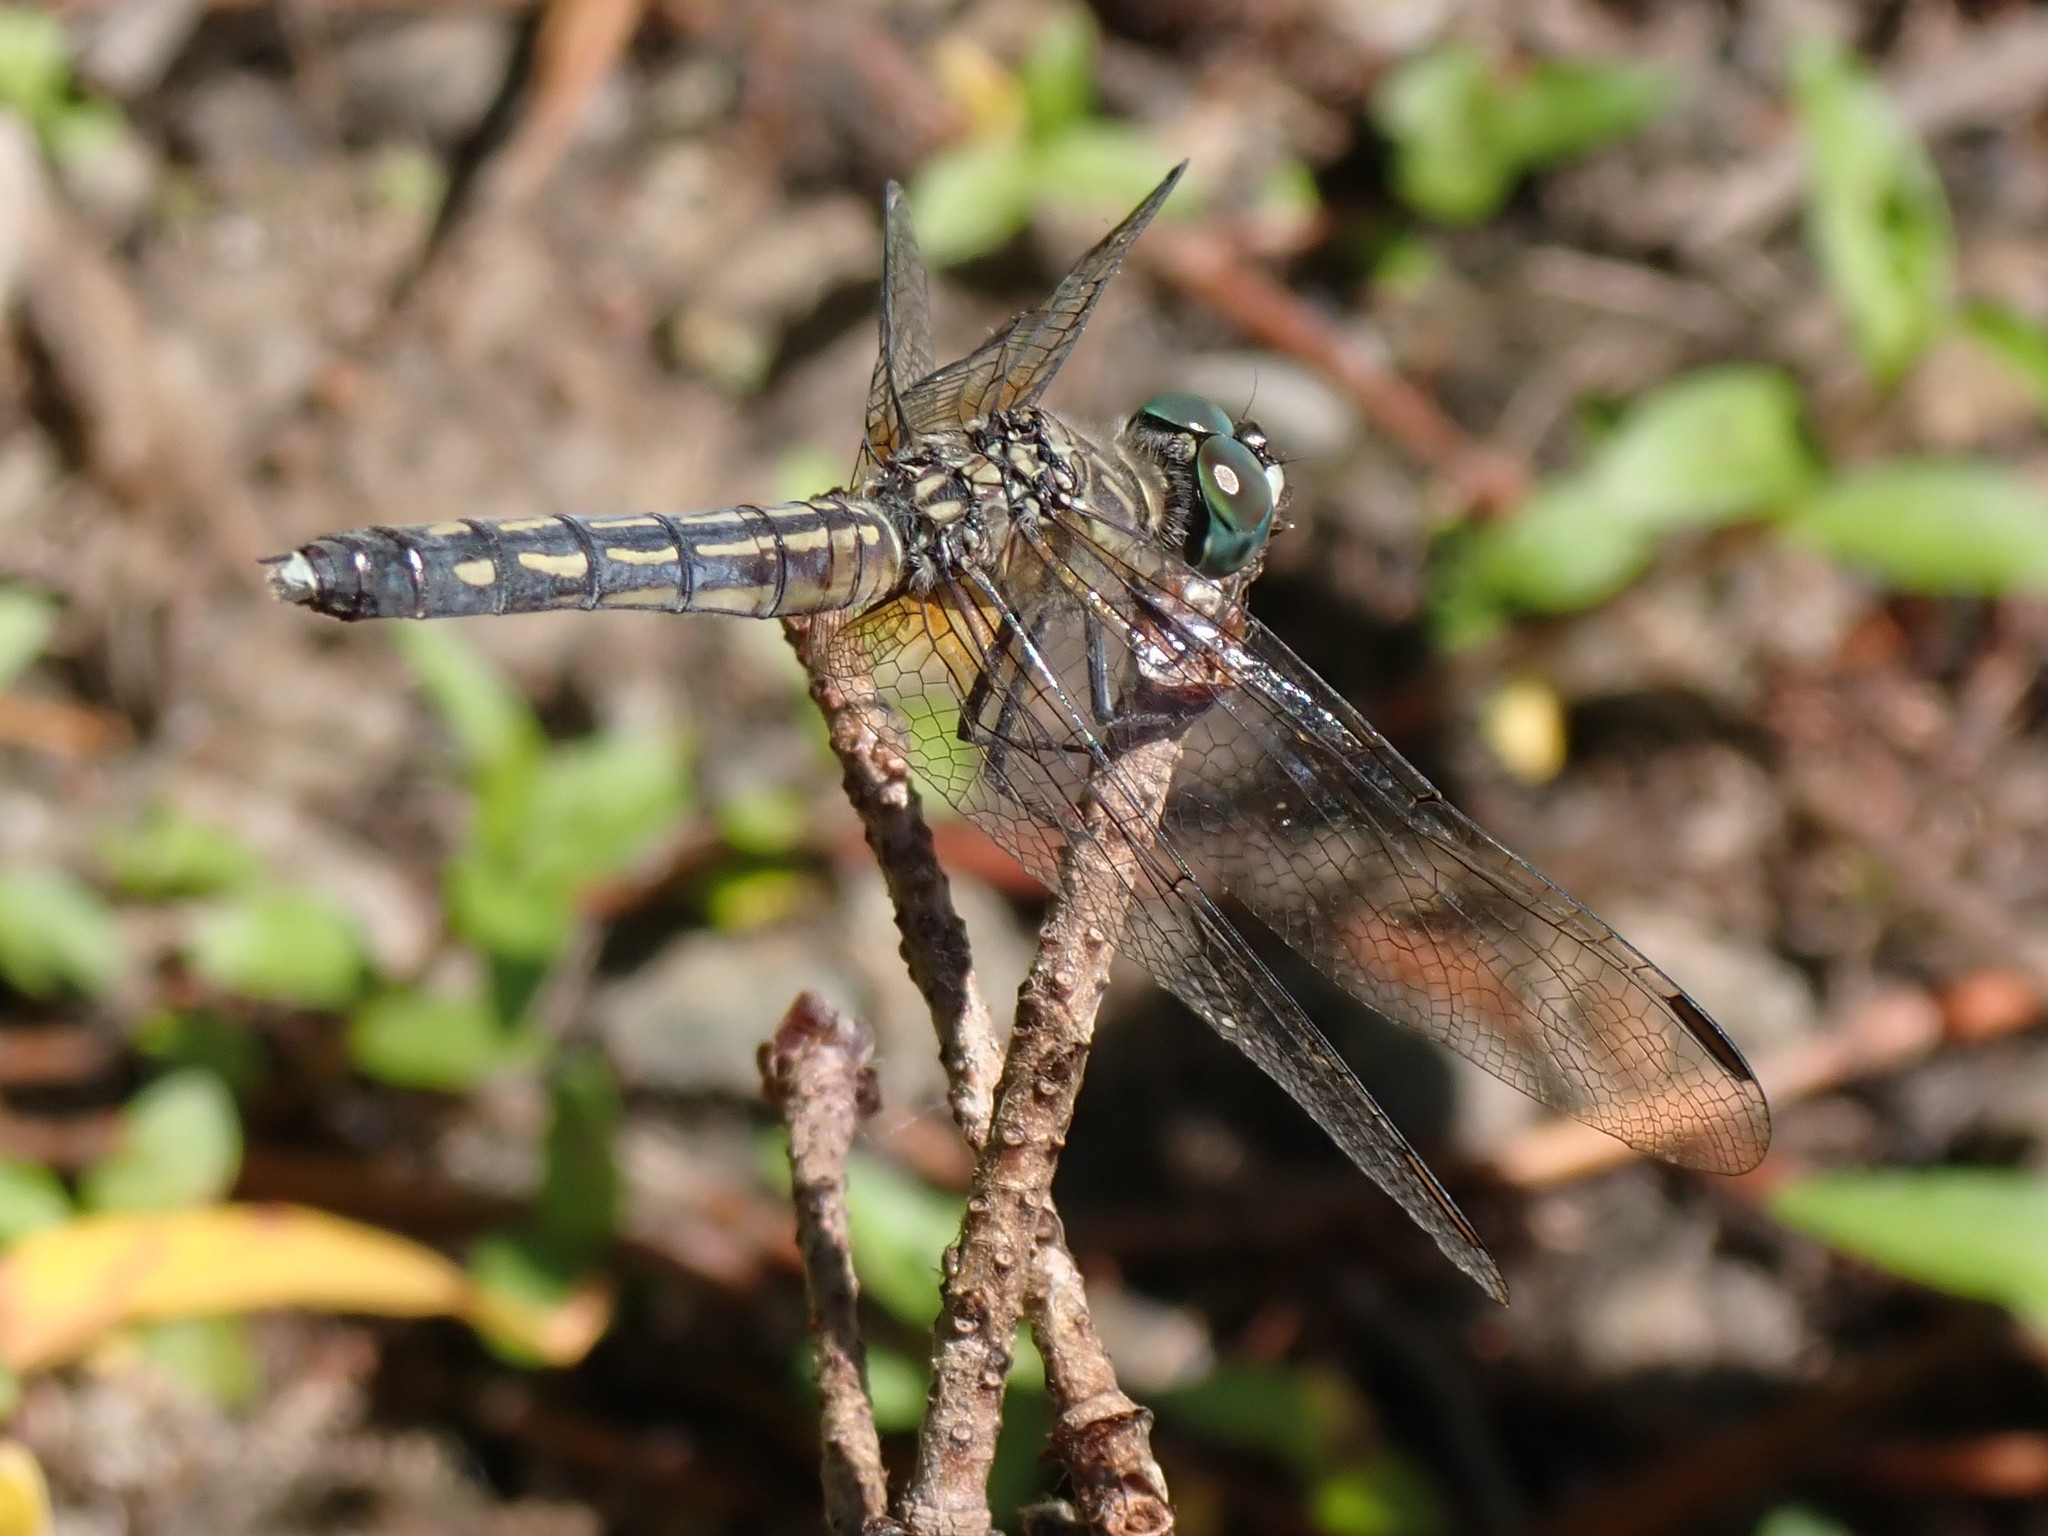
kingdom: Animalia
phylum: Arthropoda
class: Insecta
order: Odonata
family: Libellulidae
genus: Pachydiplax
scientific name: Pachydiplax longipennis
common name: Blue dasher
